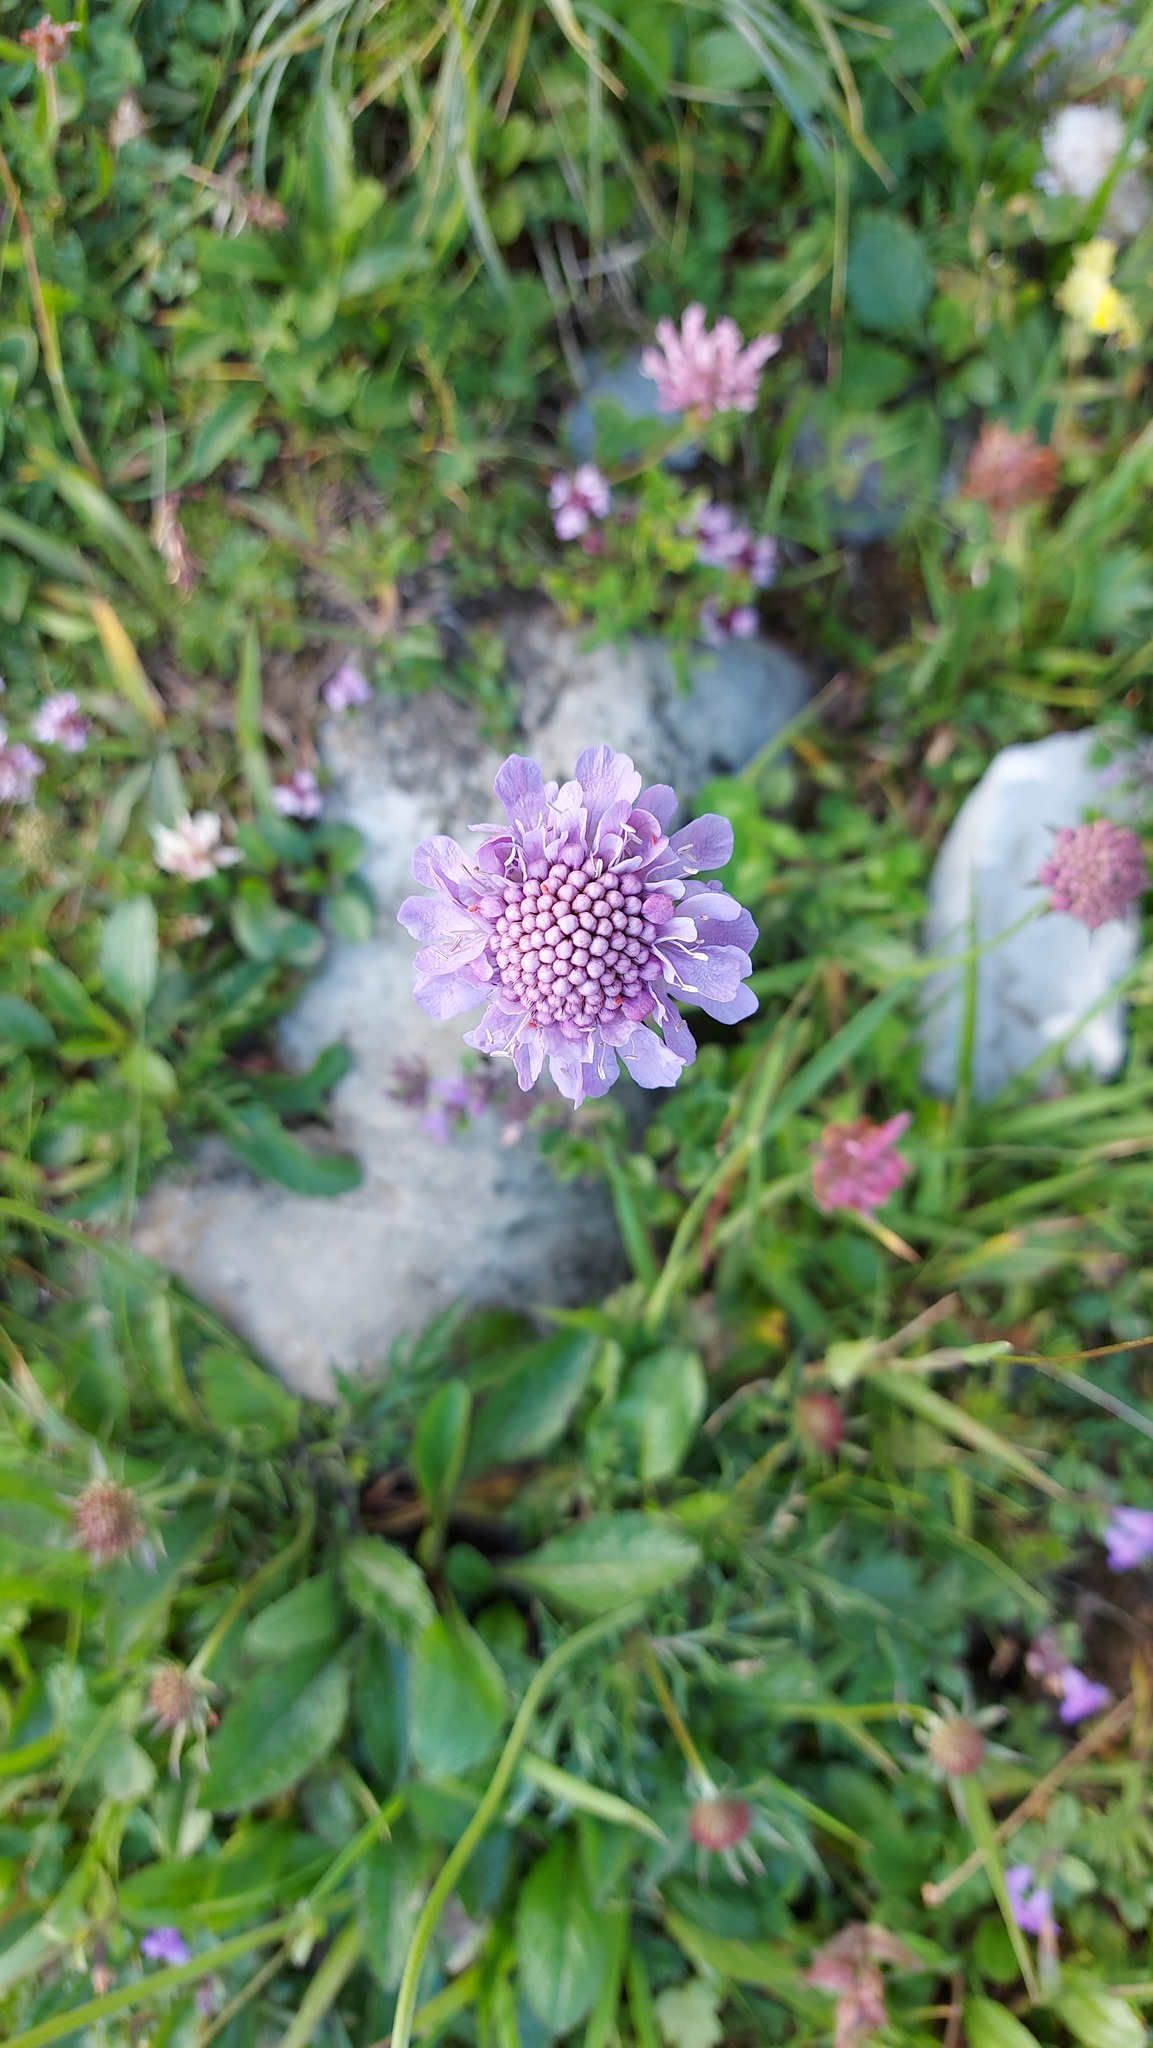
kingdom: Plantae
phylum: Tracheophyta
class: Magnoliopsida
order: Dipsacales
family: Caprifoliaceae
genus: Scabiosa
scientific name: Scabiosa lucida
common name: Shining scabious
